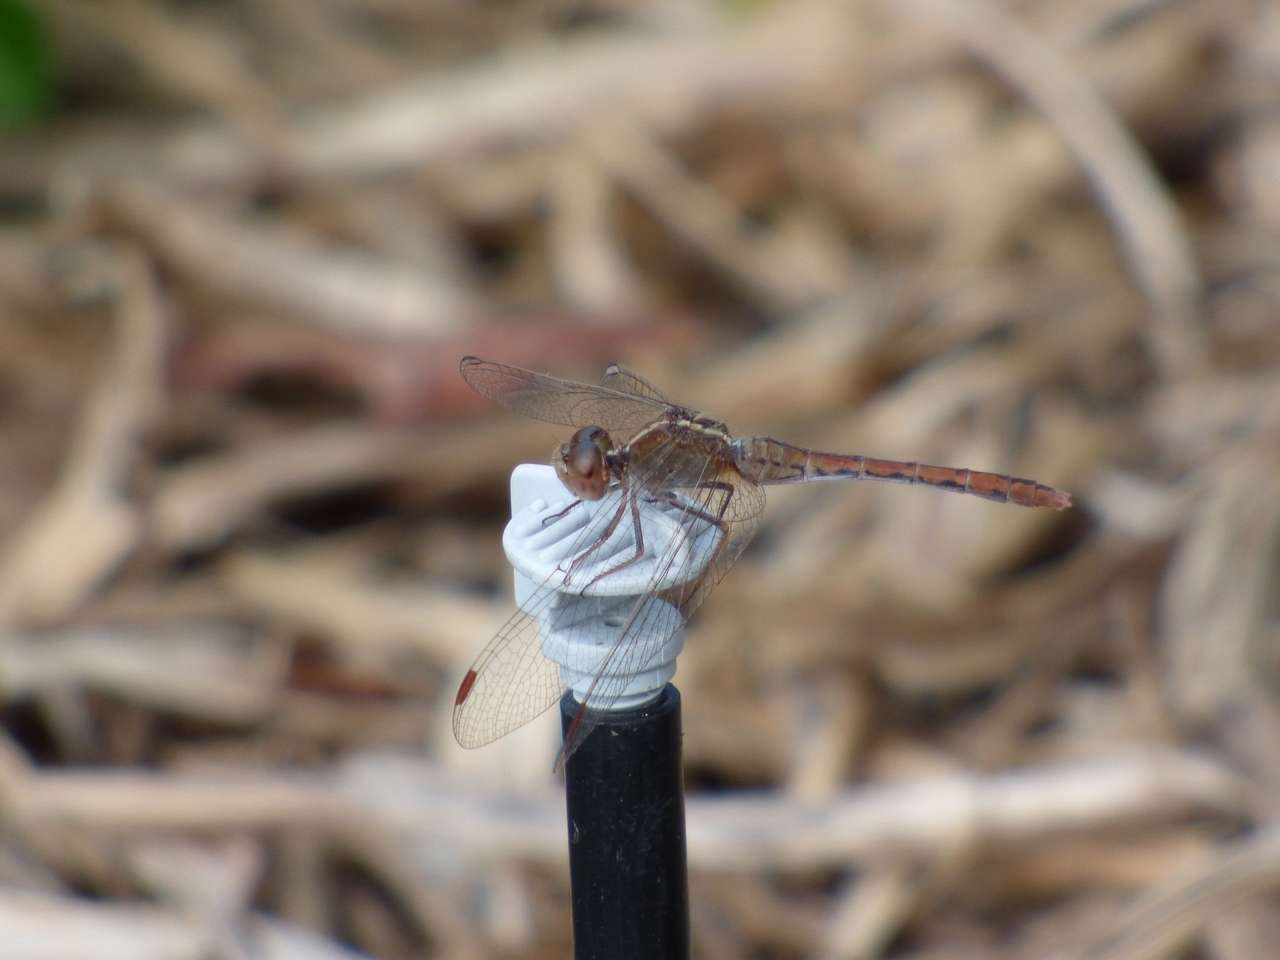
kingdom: Animalia
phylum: Arthropoda
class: Insecta
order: Odonata
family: Libellulidae
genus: Diplacodes
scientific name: Diplacodes bipunctata
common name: Red percher dragonfly
